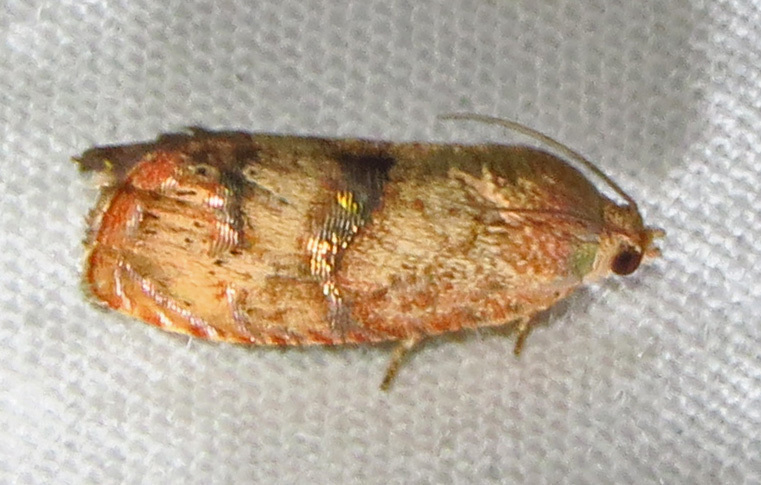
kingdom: Animalia
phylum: Arthropoda
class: Insecta
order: Lepidoptera
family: Tortricidae
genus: Cydia
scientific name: Cydia latiferreana
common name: Filbertworm moth
